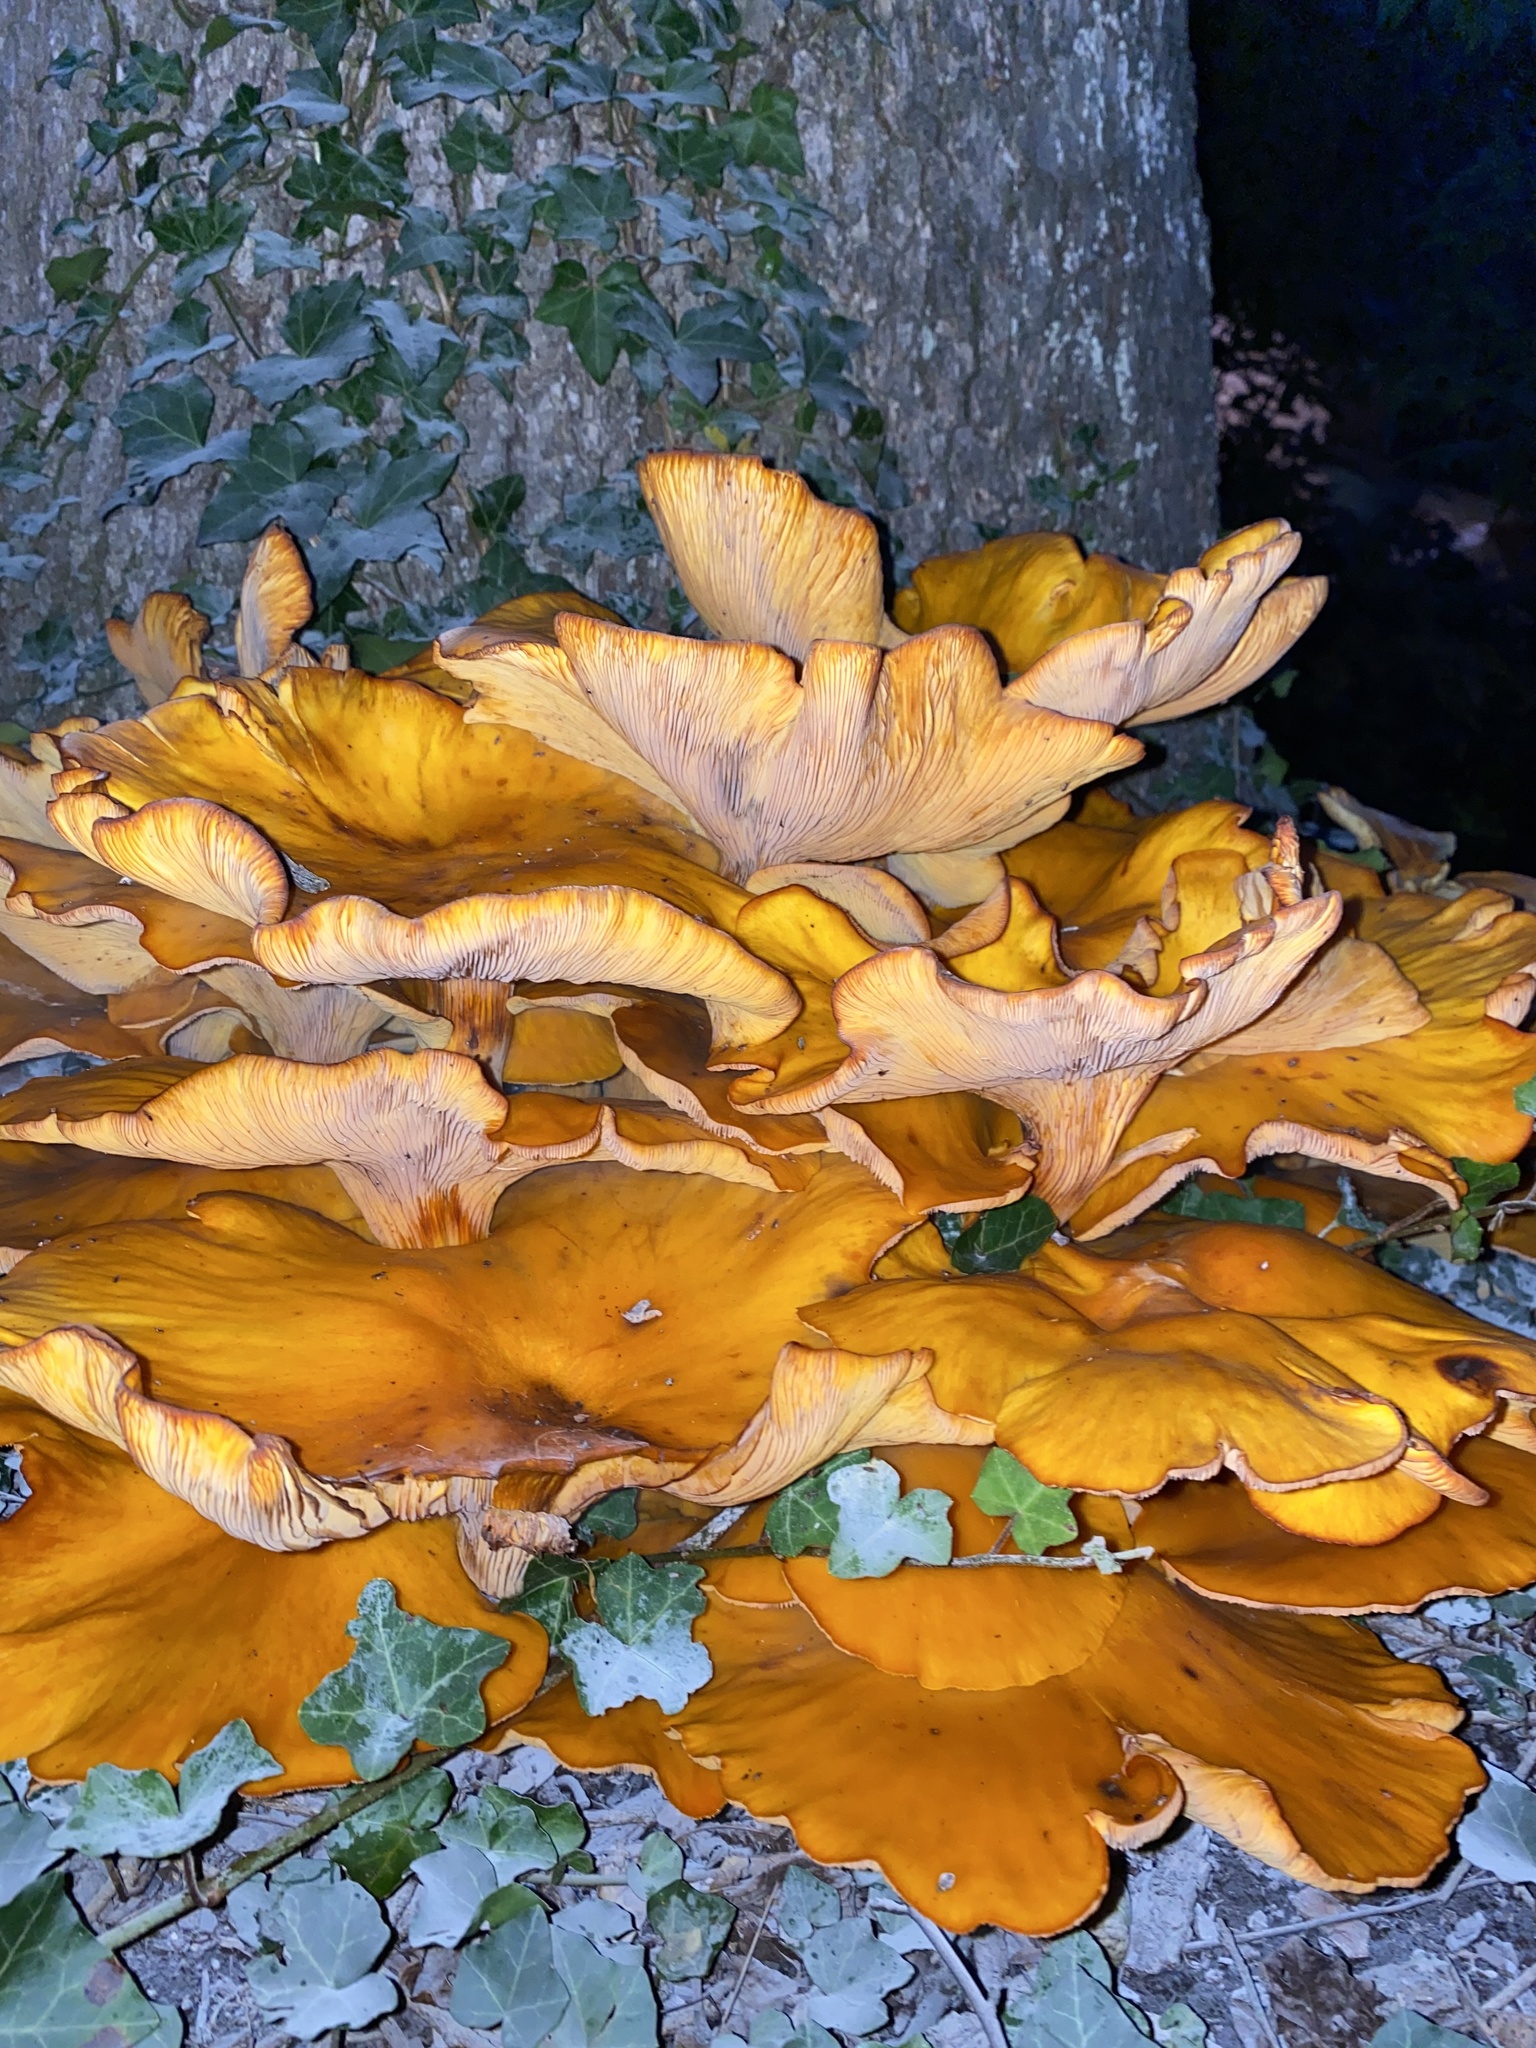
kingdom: Fungi
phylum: Basidiomycota
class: Agaricomycetes
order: Agaricales
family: Omphalotaceae
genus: Omphalotus
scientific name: Omphalotus illudens
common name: Jack o lantern
